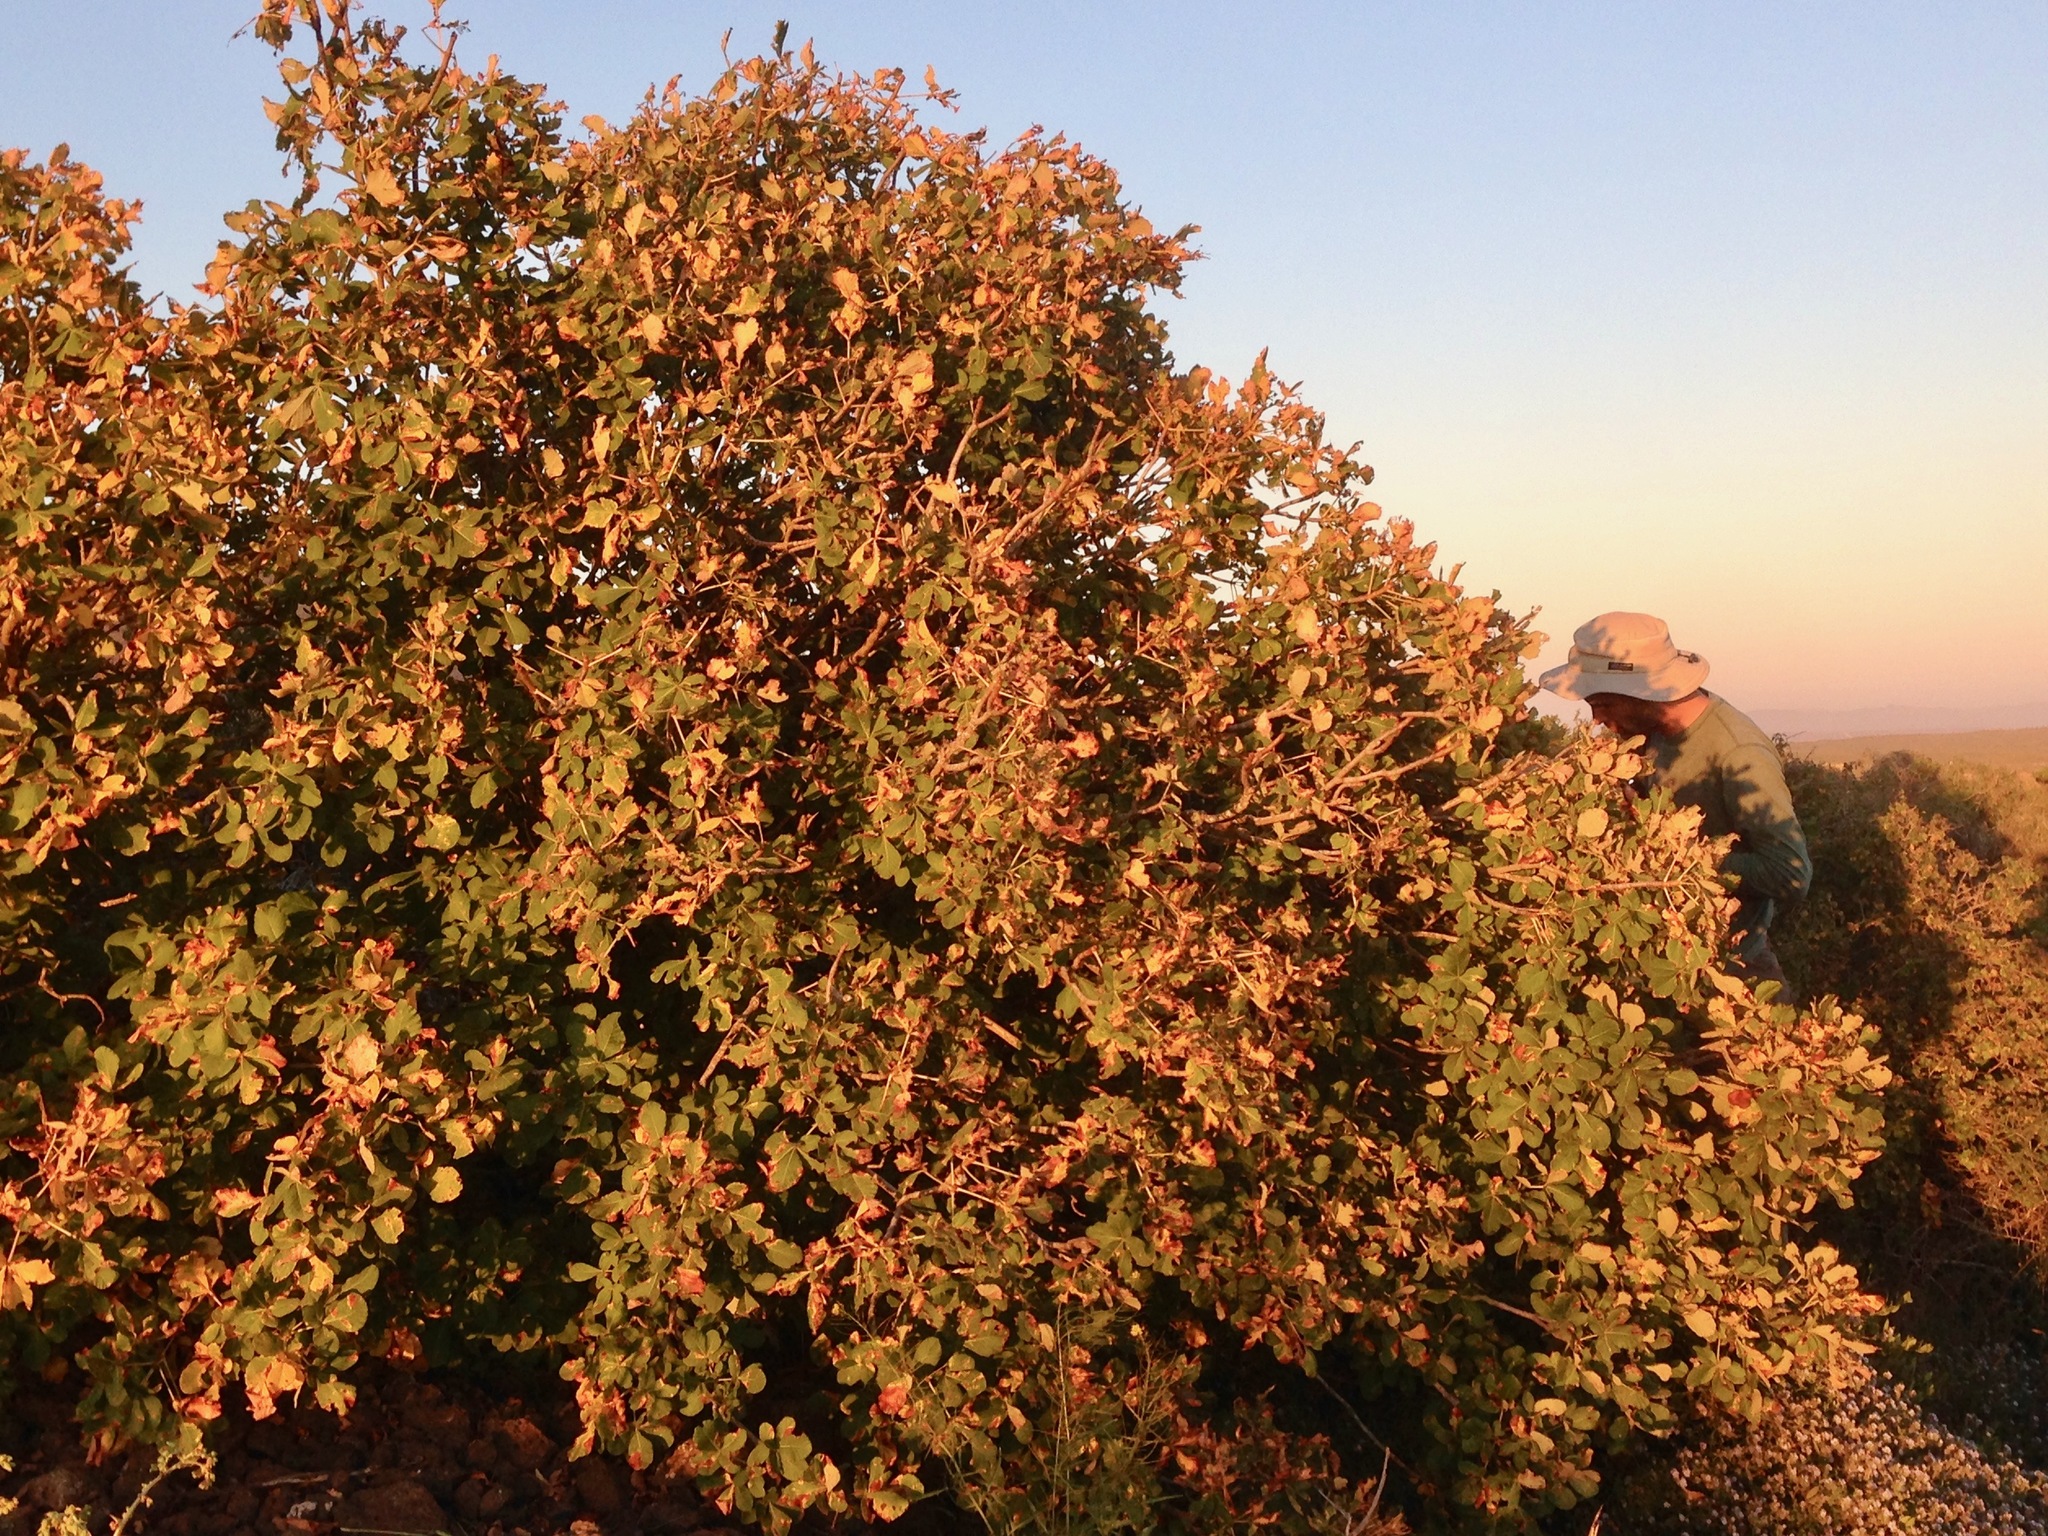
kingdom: Plantae
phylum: Tracheophyta
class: Magnoliopsida
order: Sapindales
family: Sapindaceae
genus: Aesculus
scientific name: Aesculus parryi
